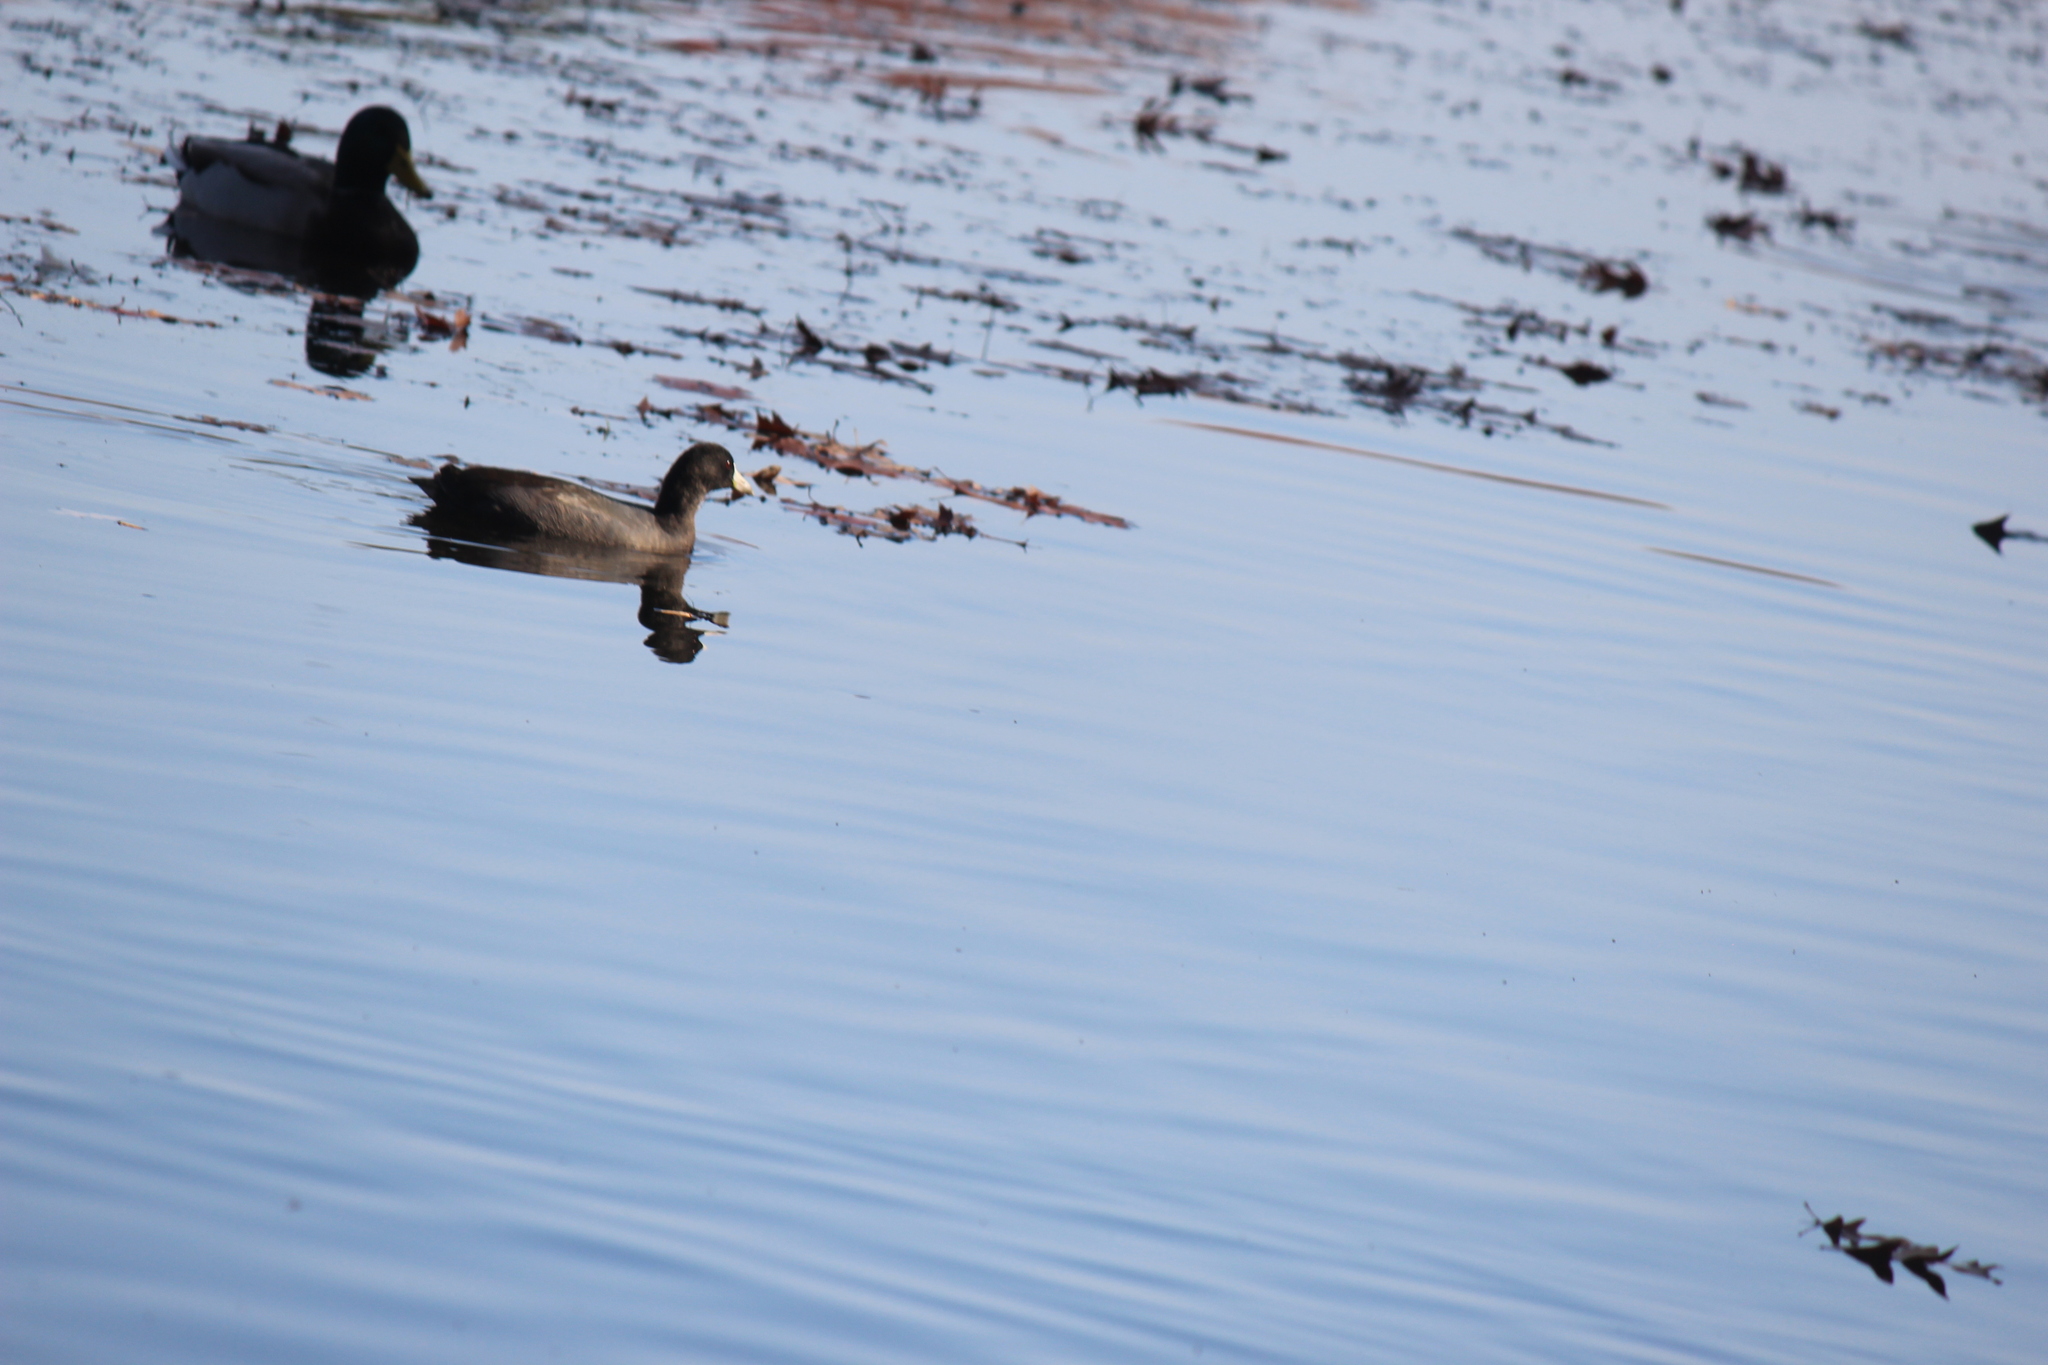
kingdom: Animalia
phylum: Chordata
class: Aves
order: Gruiformes
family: Rallidae
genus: Fulica
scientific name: Fulica americana
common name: American coot
